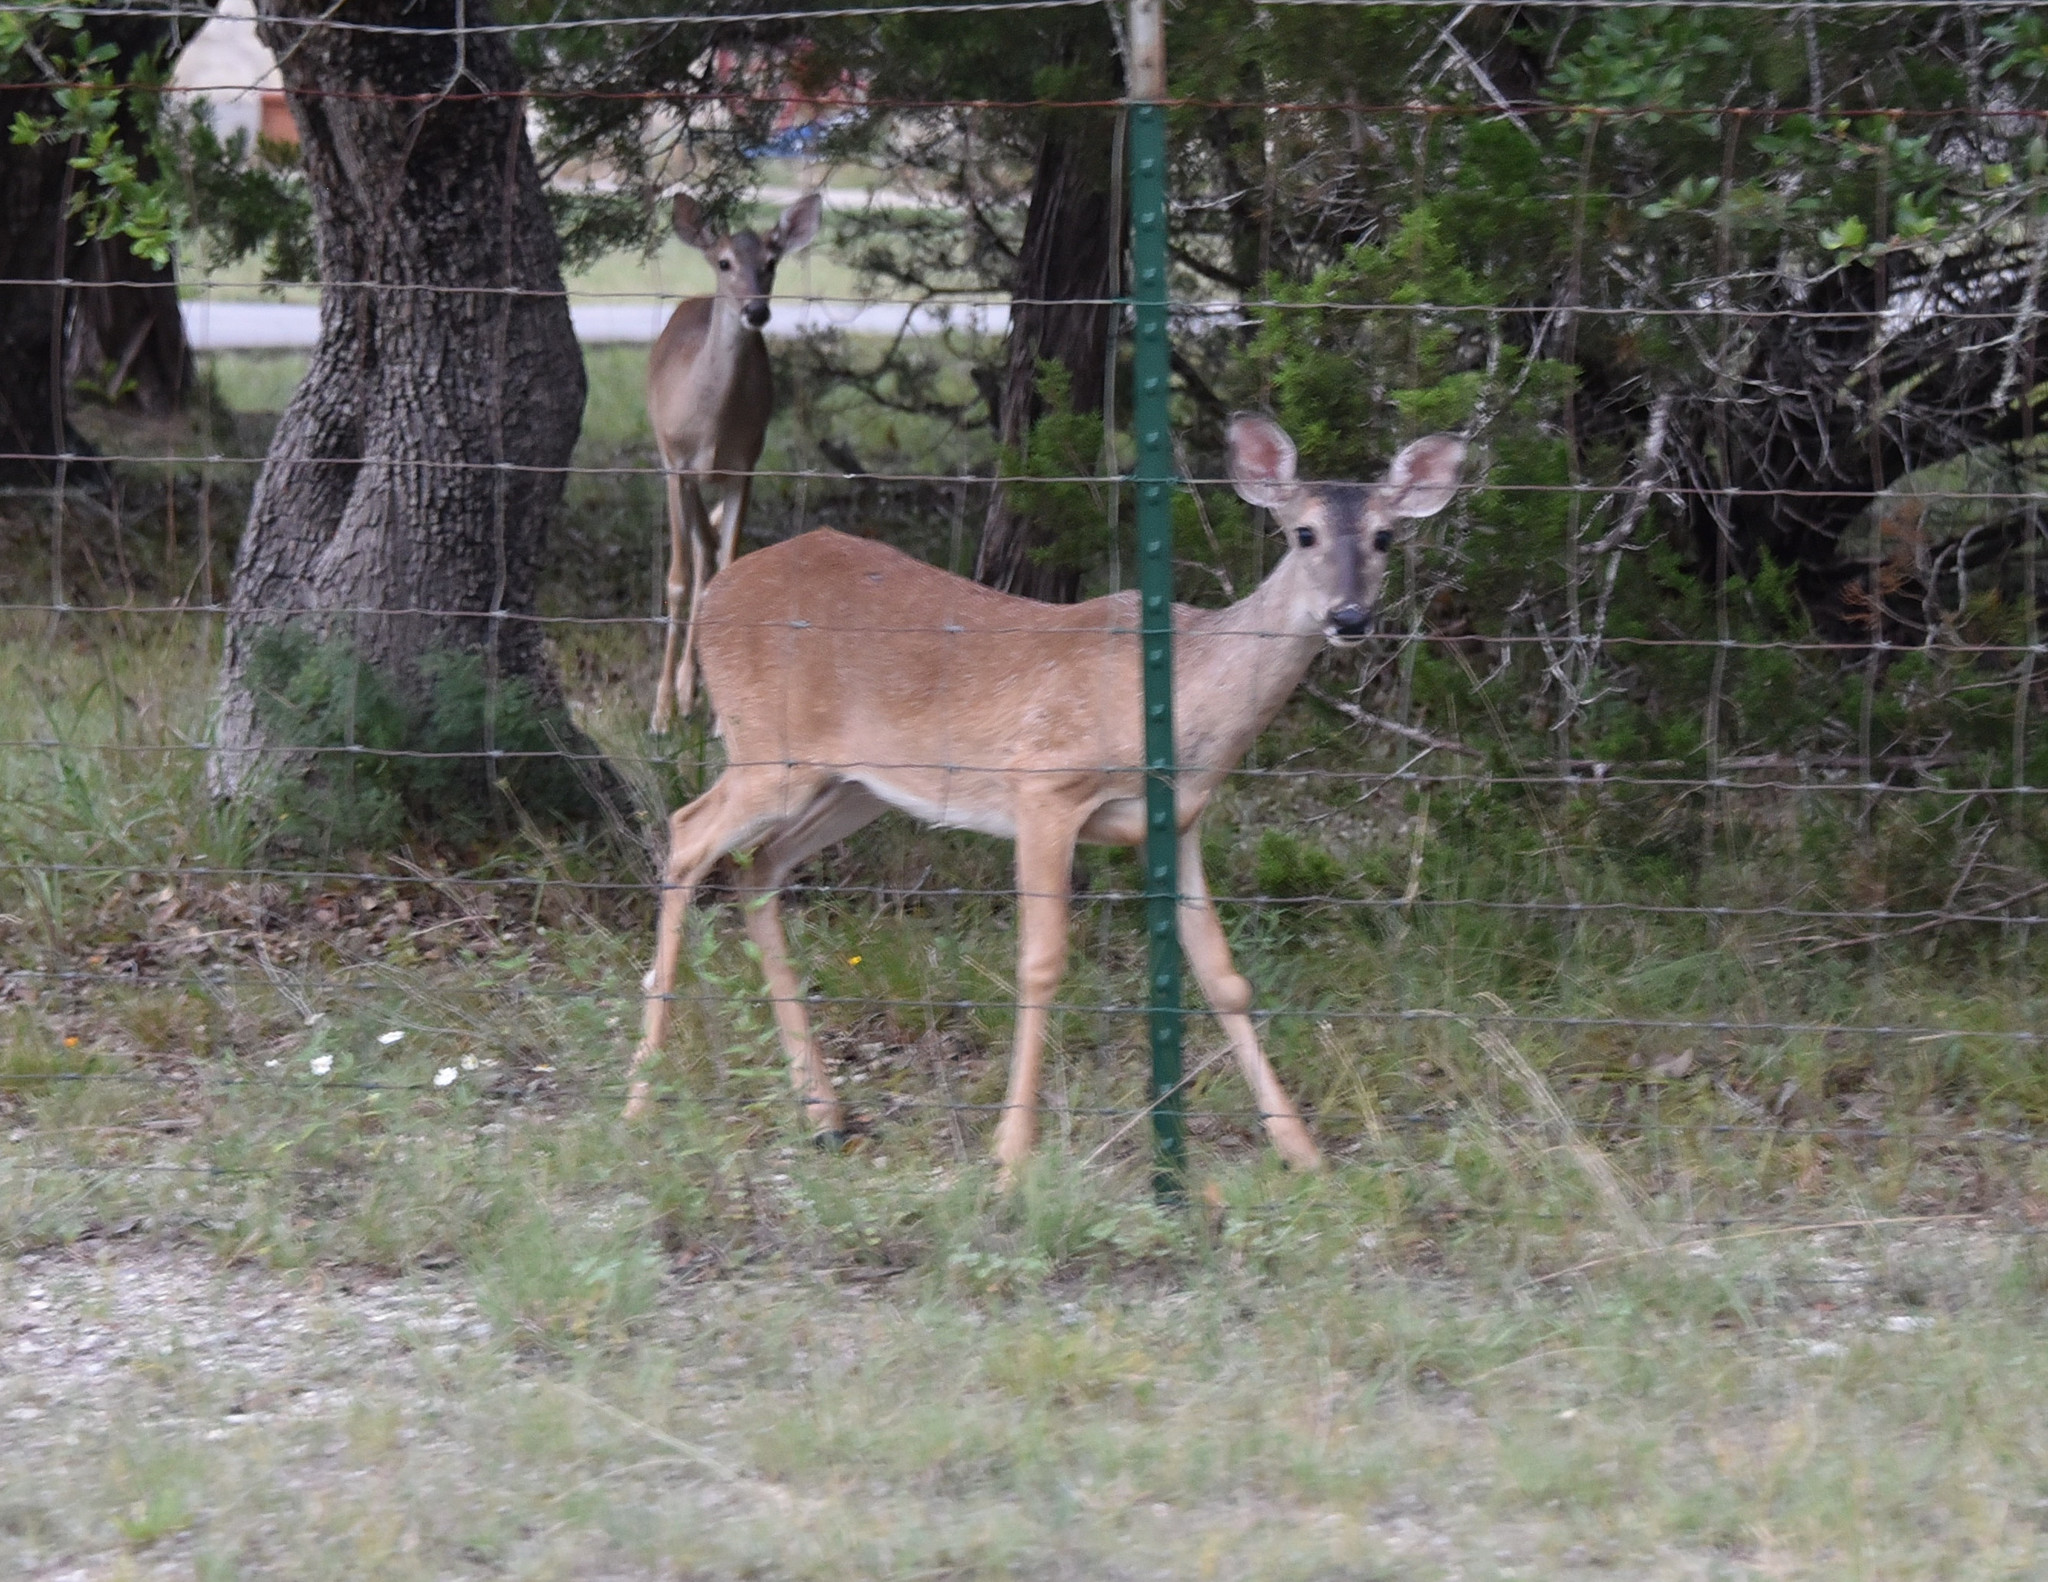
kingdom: Animalia
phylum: Chordata
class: Mammalia
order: Artiodactyla
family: Cervidae
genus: Odocoileus
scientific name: Odocoileus virginianus
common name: White-tailed deer
